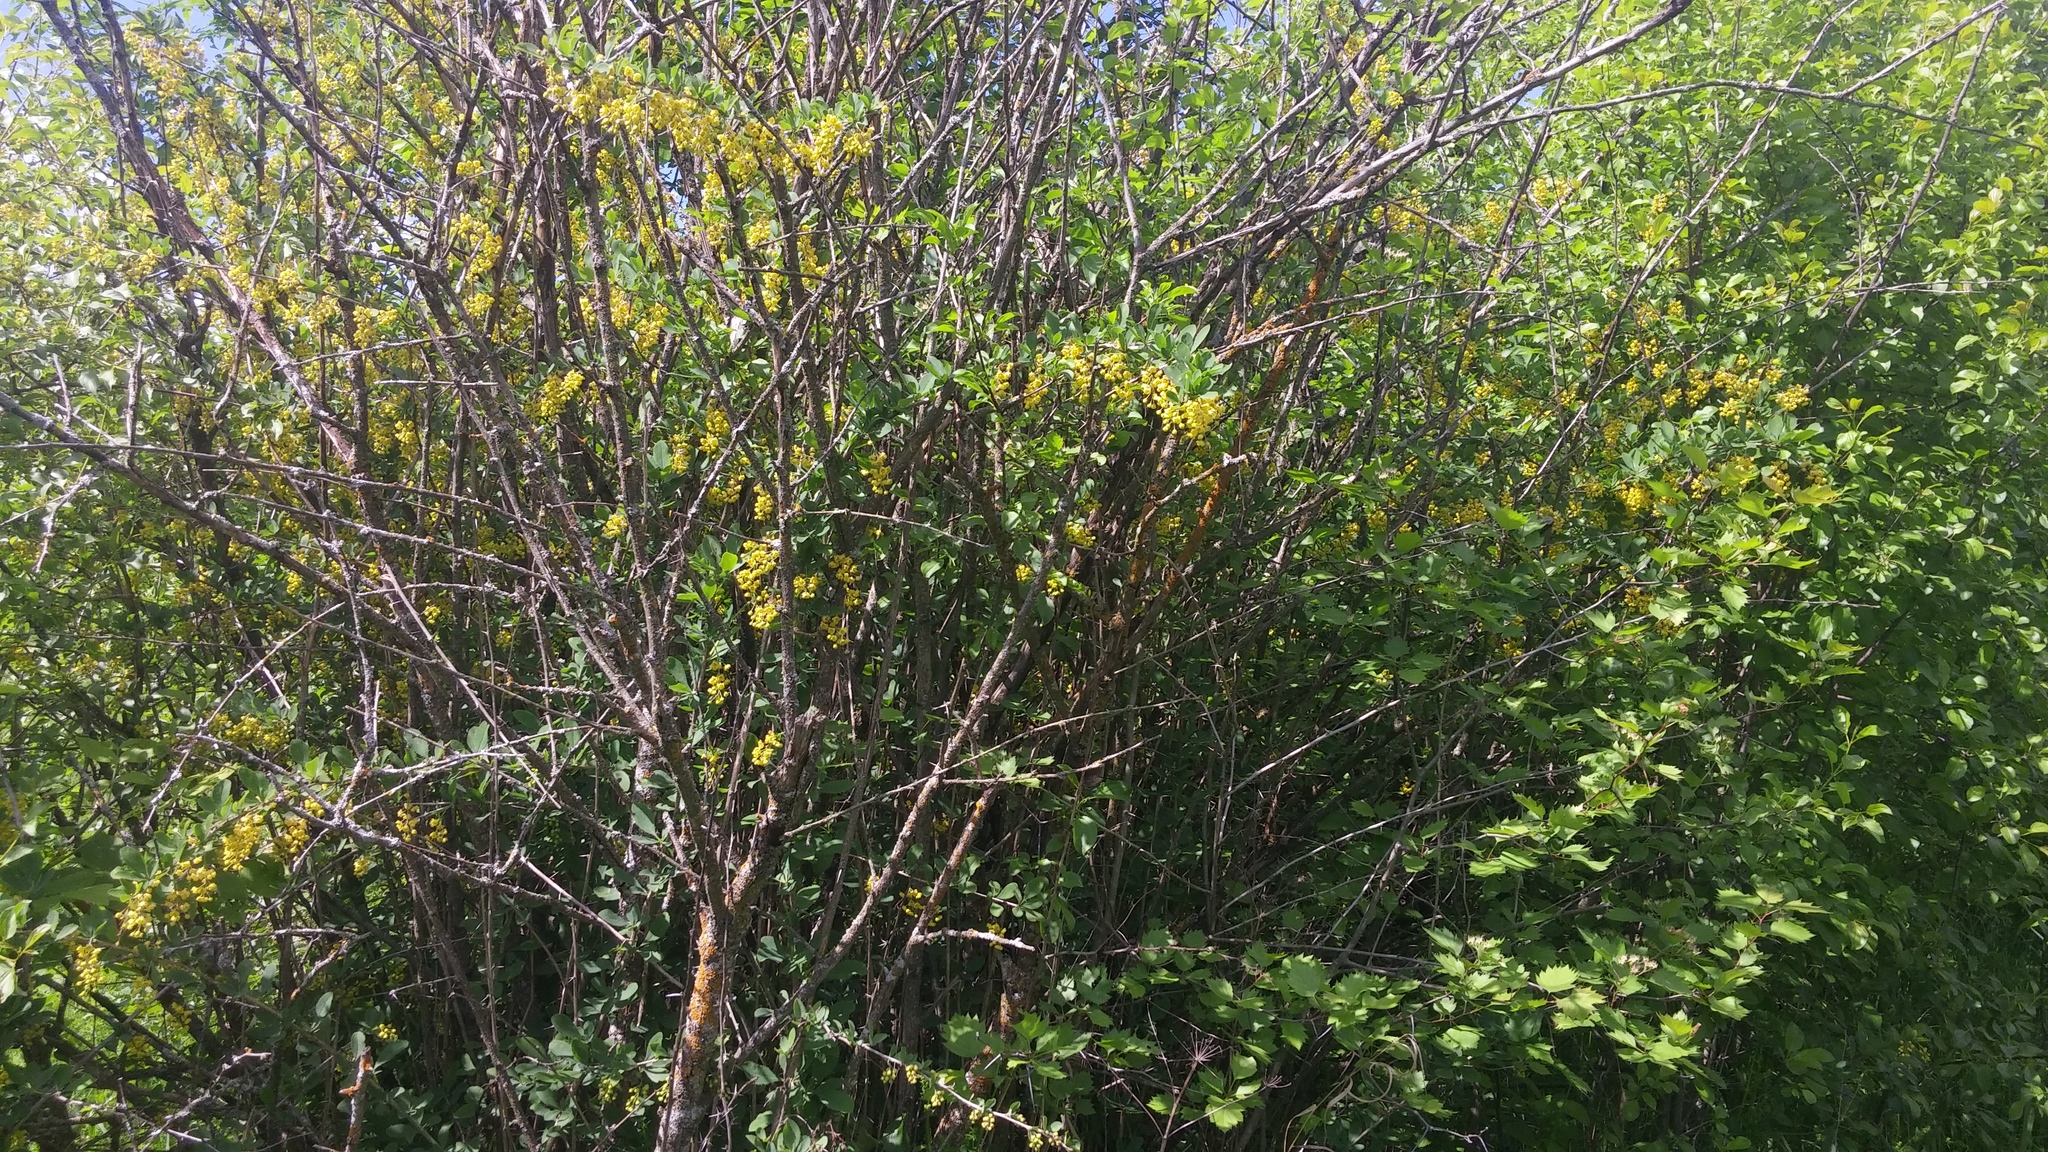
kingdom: Plantae
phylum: Tracheophyta
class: Magnoliopsida
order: Ranunculales
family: Berberidaceae
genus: Berberis
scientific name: Berberis vulgaris
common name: Barberry
